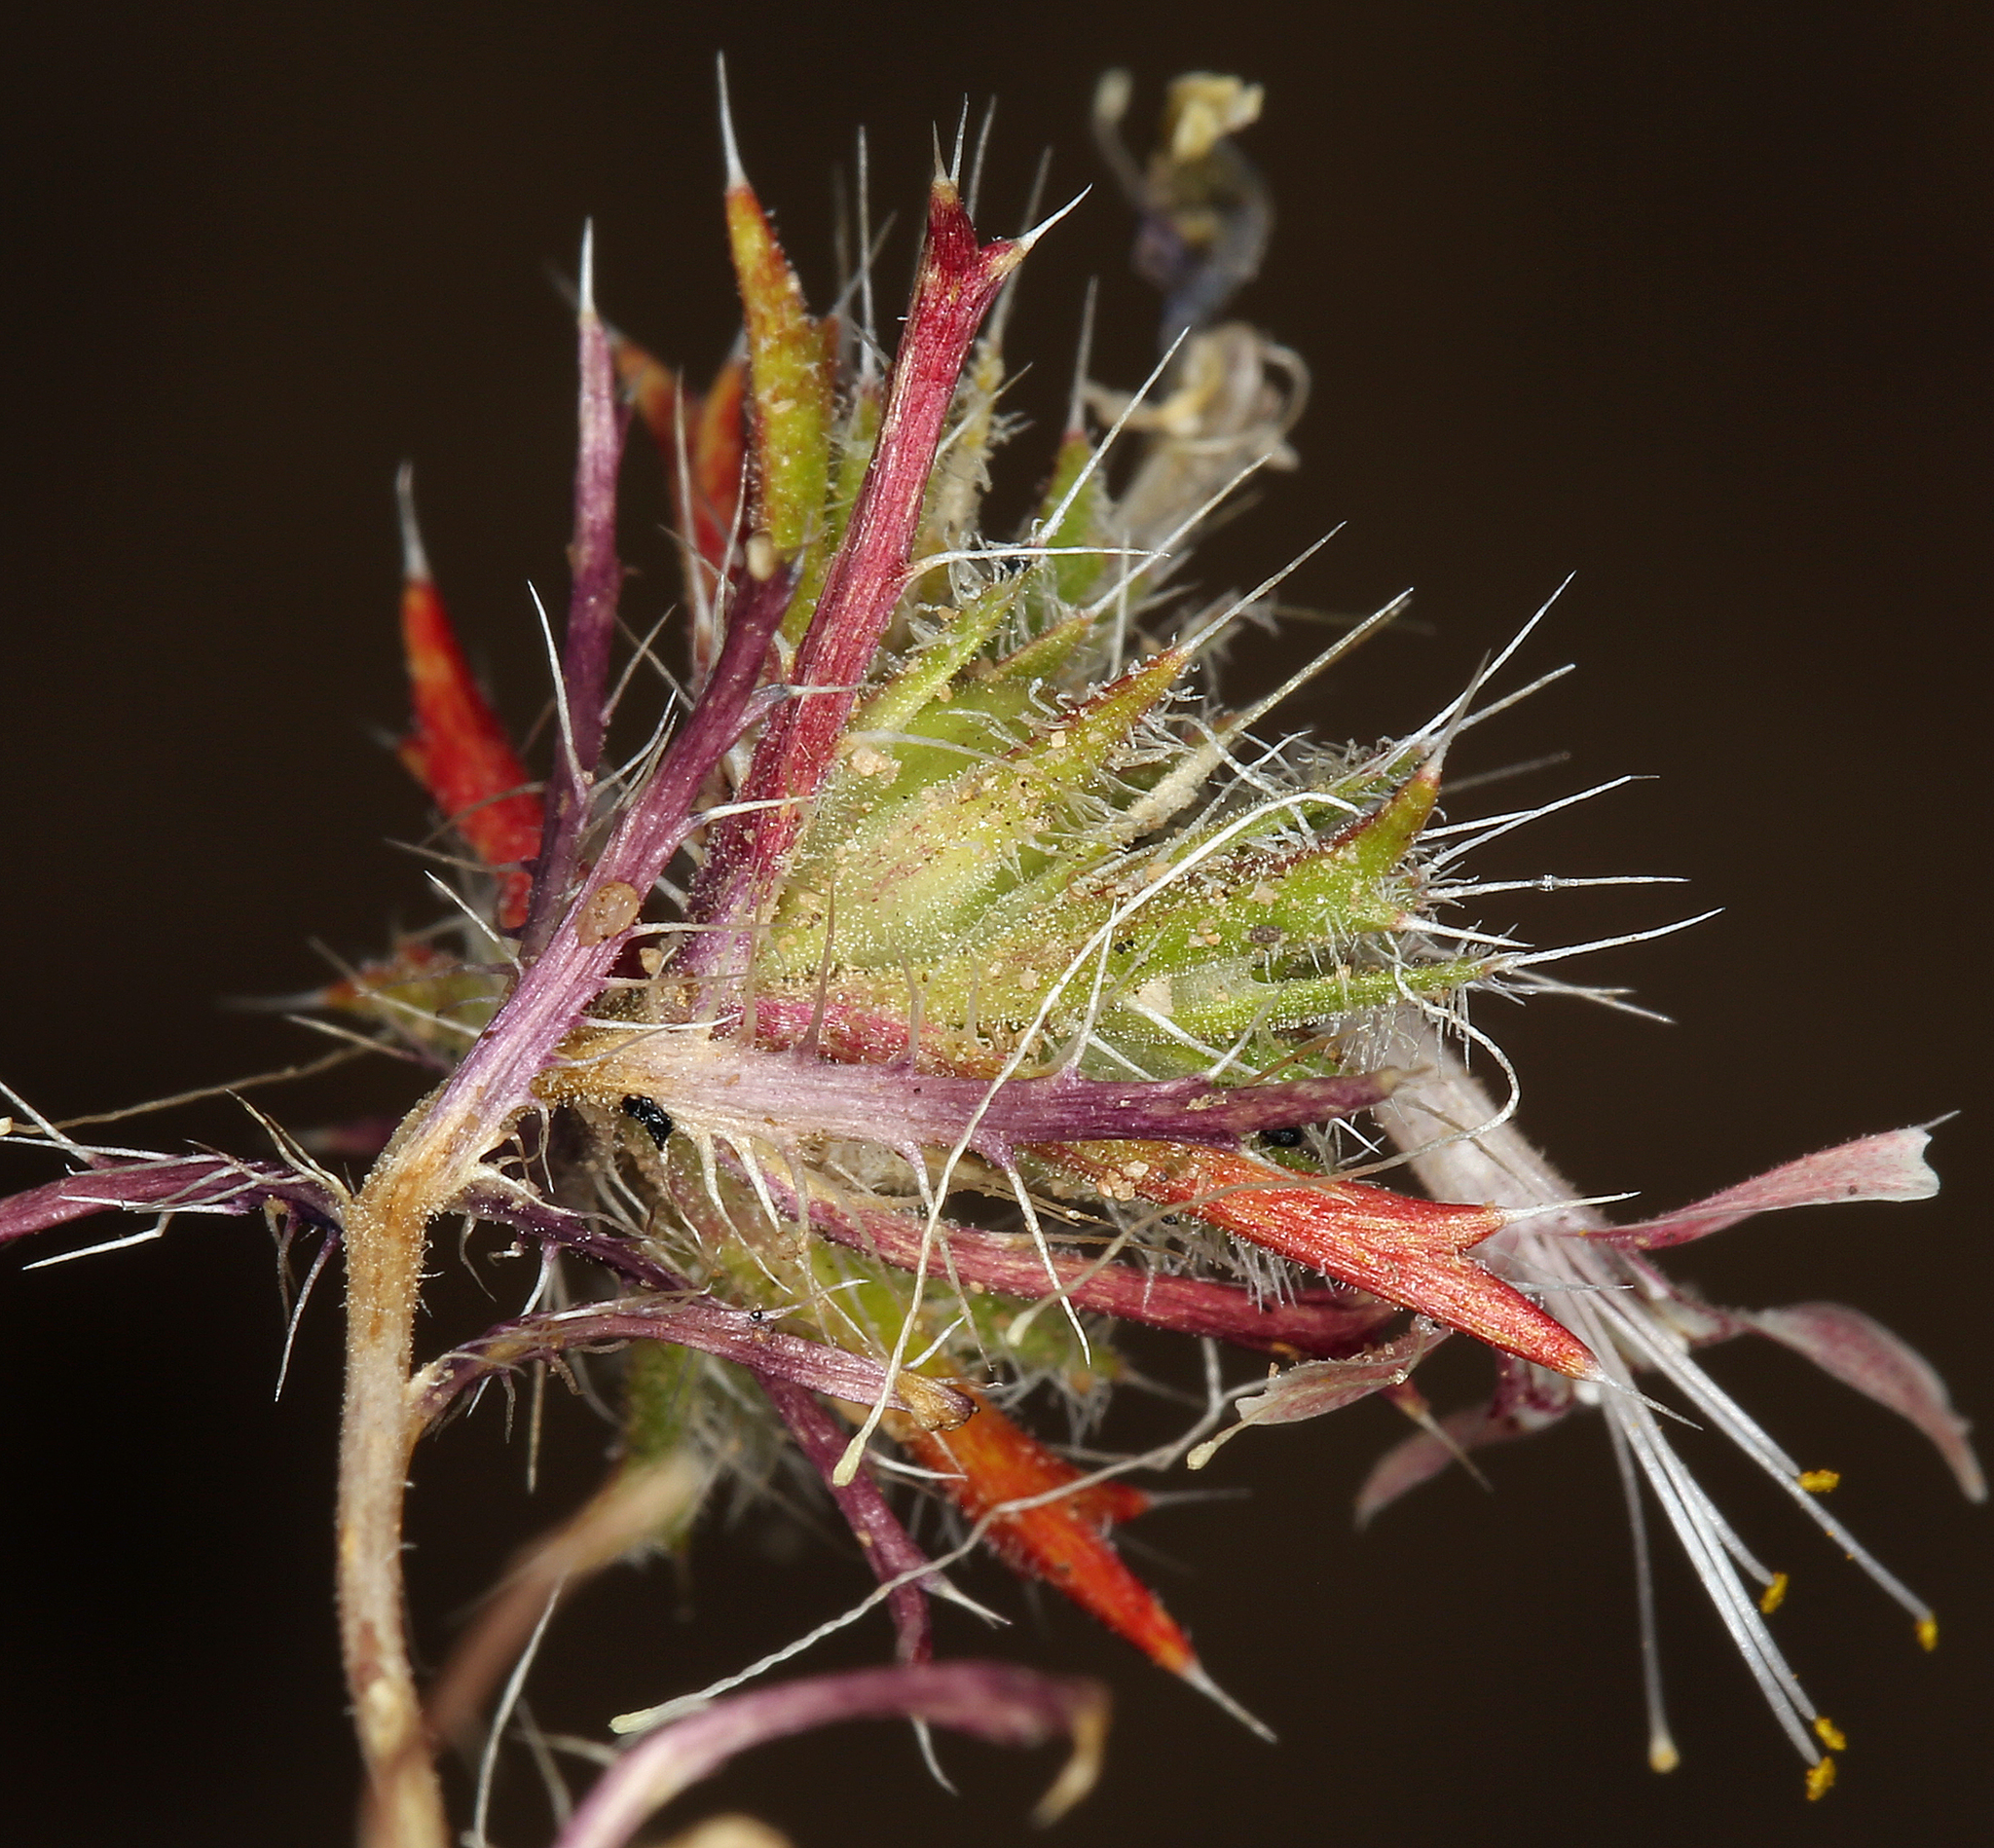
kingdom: Plantae
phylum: Tracheophyta
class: Magnoliopsida
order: Ericales
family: Polemoniaceae
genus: Loeseliastrum
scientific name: Loeseliastrum matthewsii
